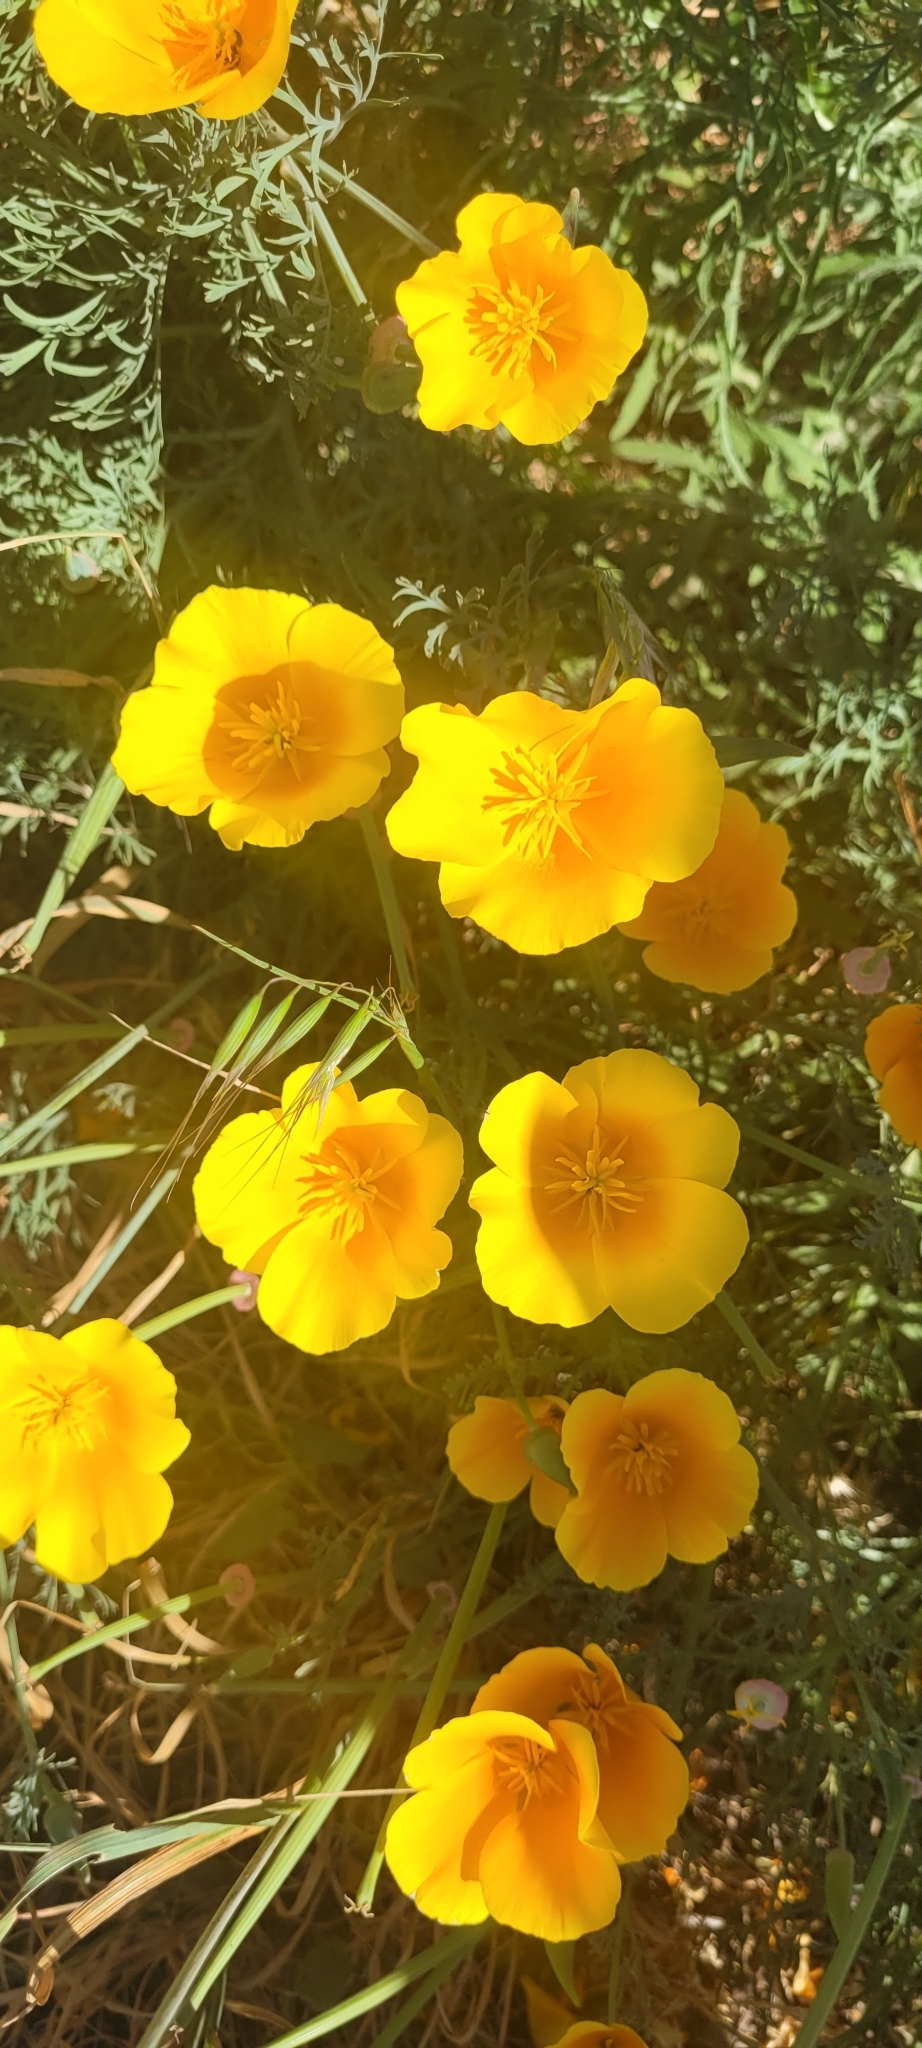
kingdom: Plantae
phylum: Tracheophyta
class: Magnoliopsida
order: Ranunculales
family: Papaveraceae
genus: Eschscholzia
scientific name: Eschscholzia californica
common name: California poppy
